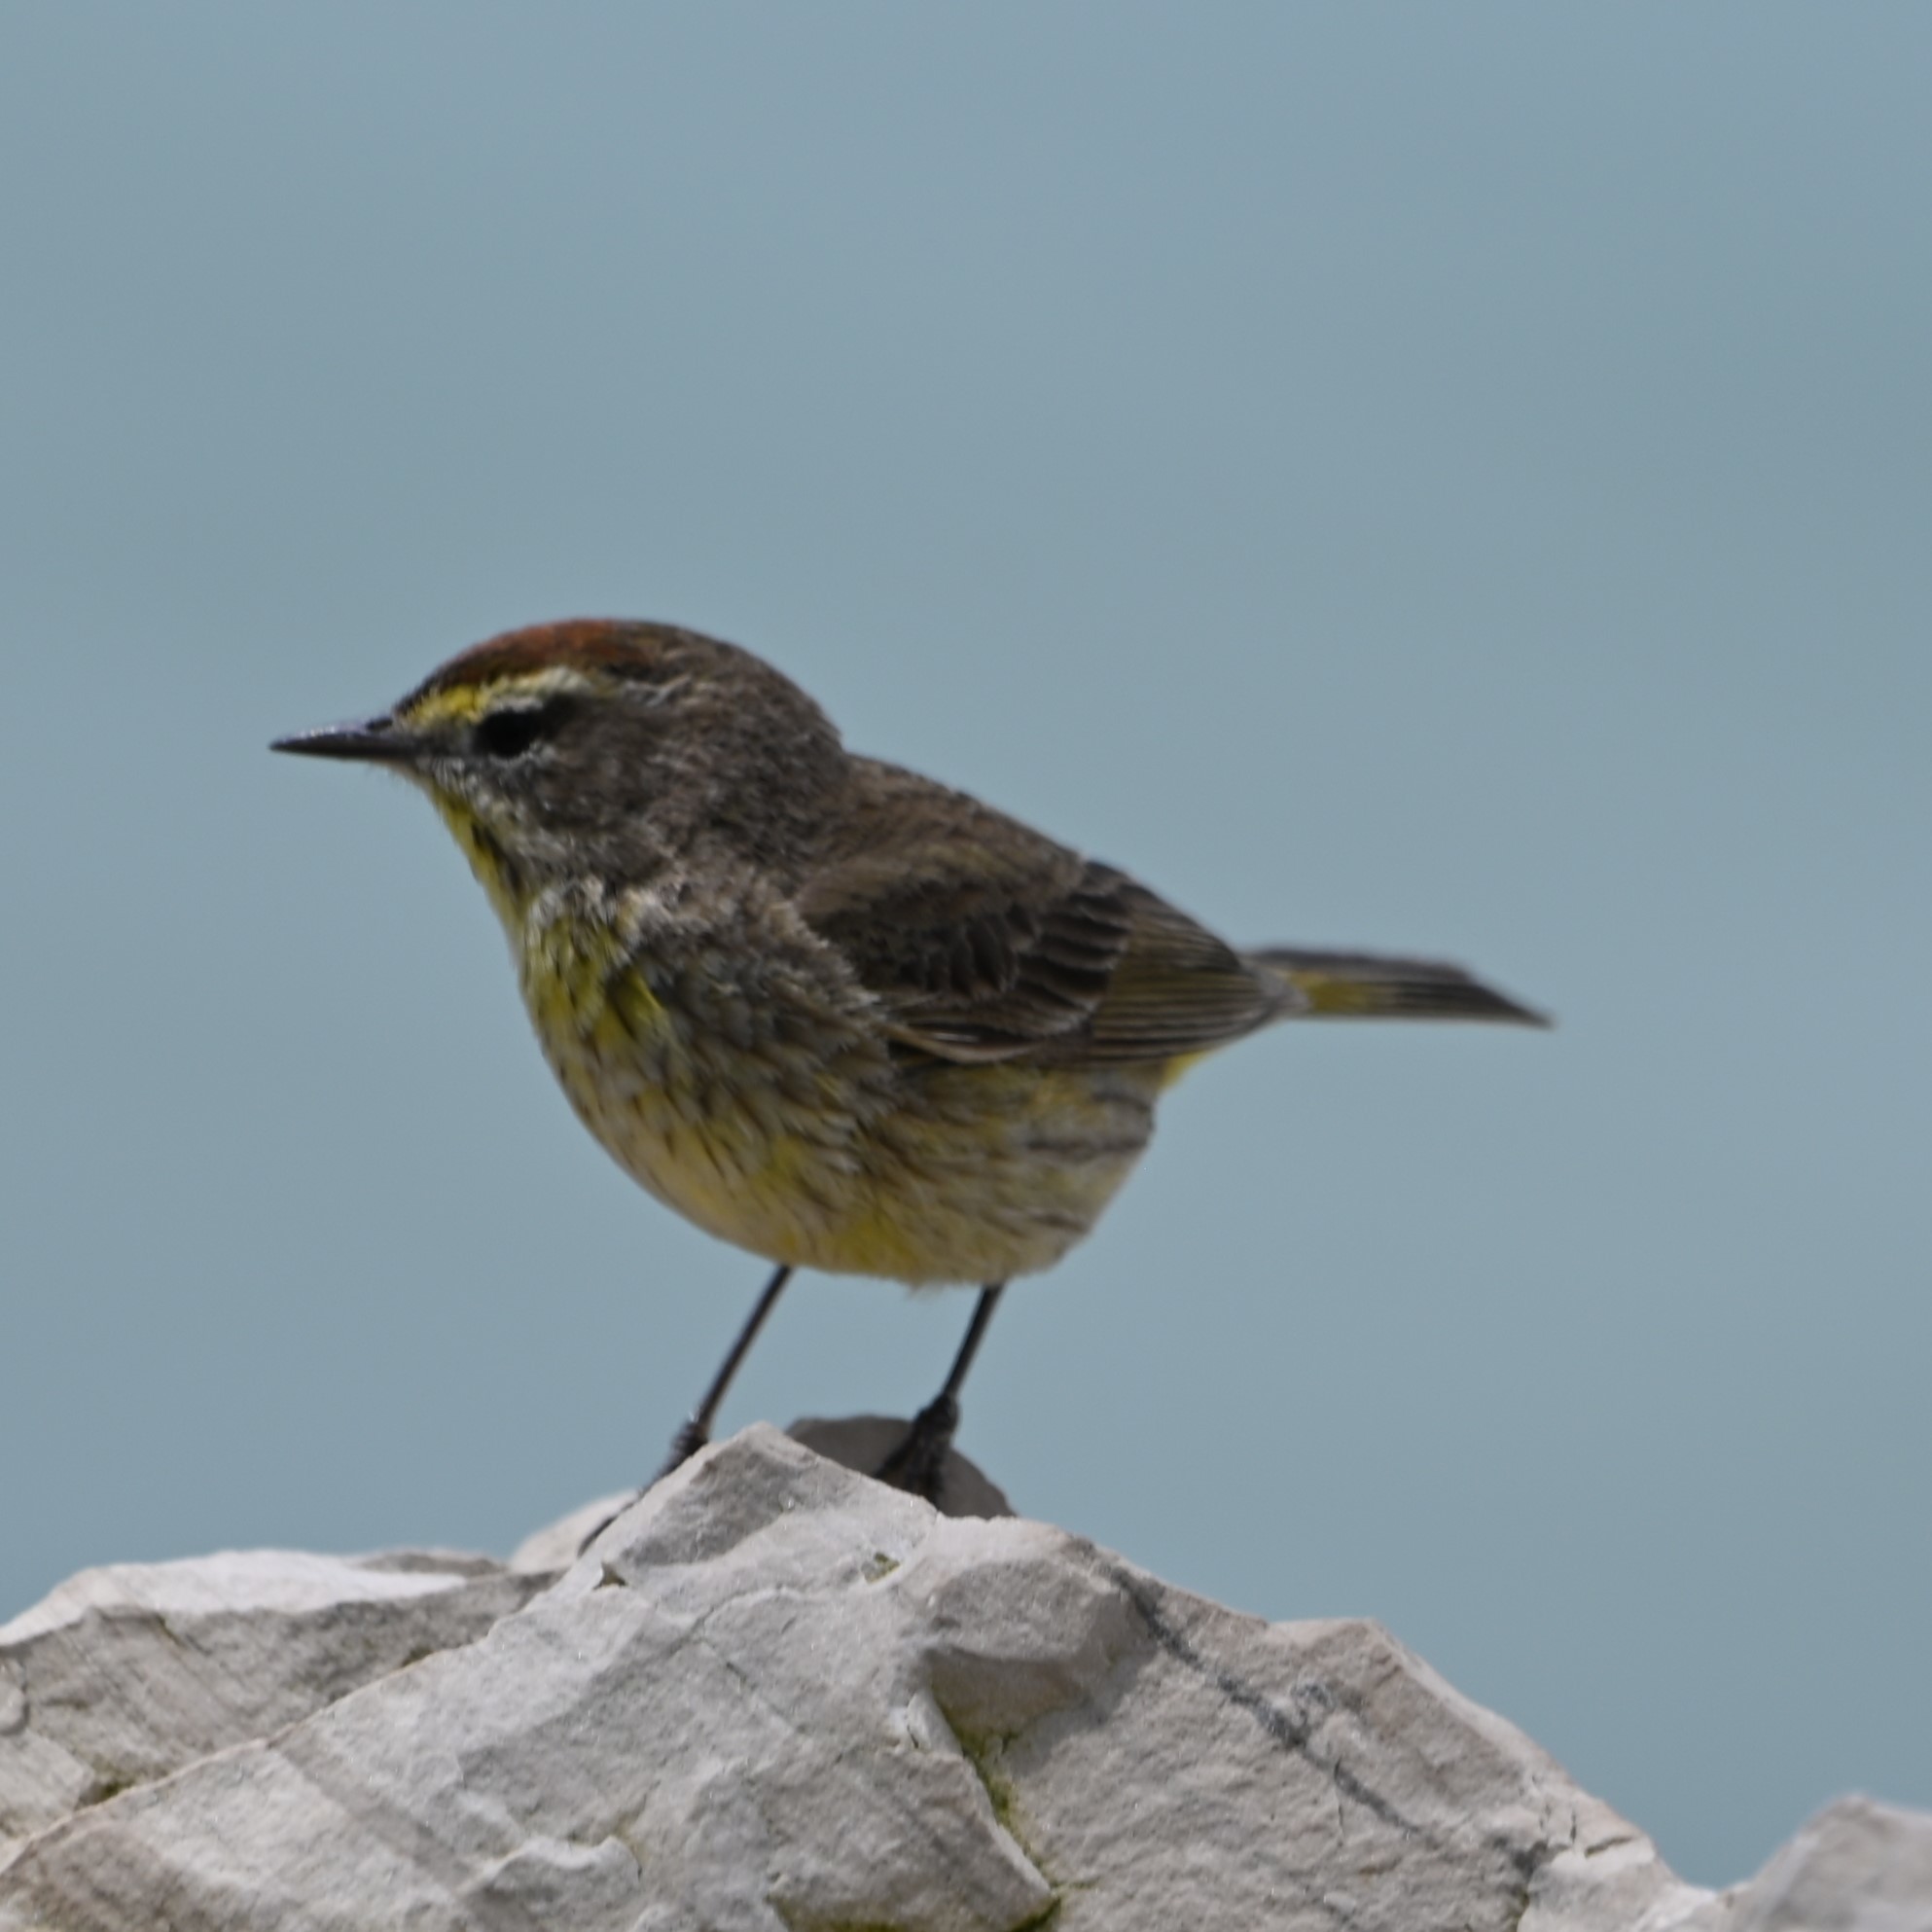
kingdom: Animalia
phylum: Chordata
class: Aves
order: Passeriformes
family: Parulidae
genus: Setophaga
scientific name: Setophaga palmarum
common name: Palm warbler
